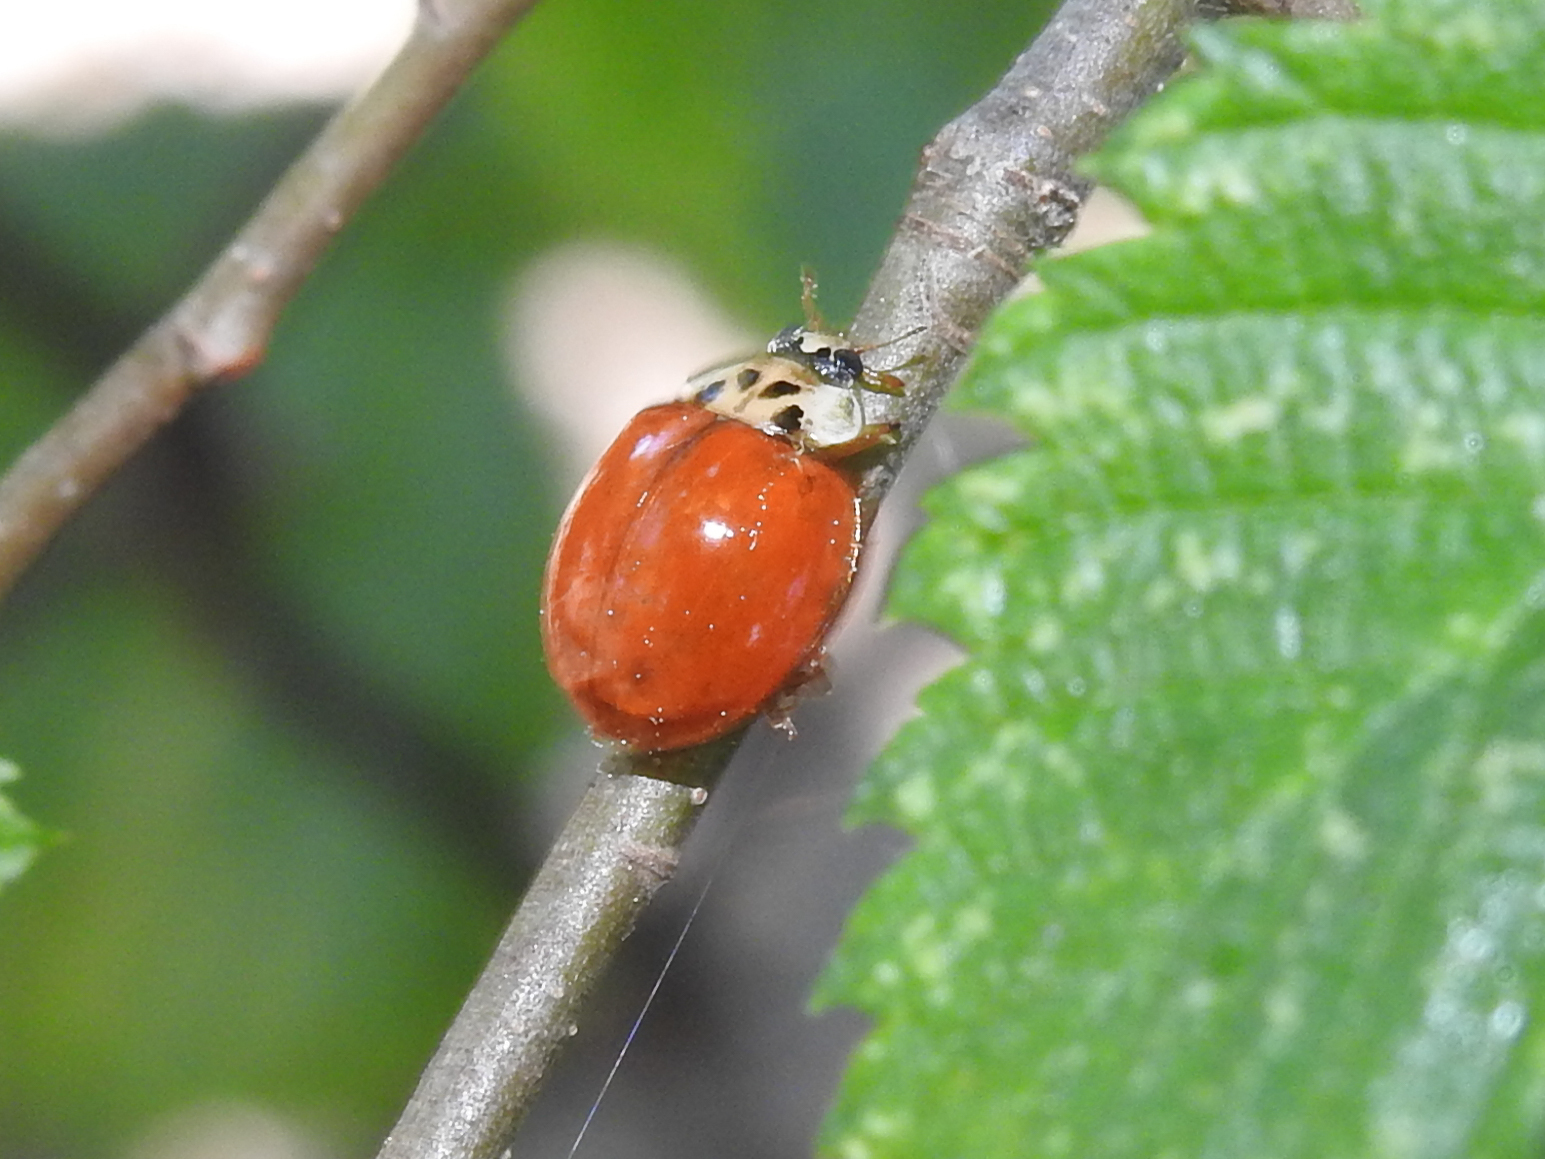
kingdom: Animalia
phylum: Arthropoda
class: Insecta
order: Coleoptera
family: Coccinellidae
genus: Harmonia
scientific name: Harmonia axyridis
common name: Harlequin ladybird
